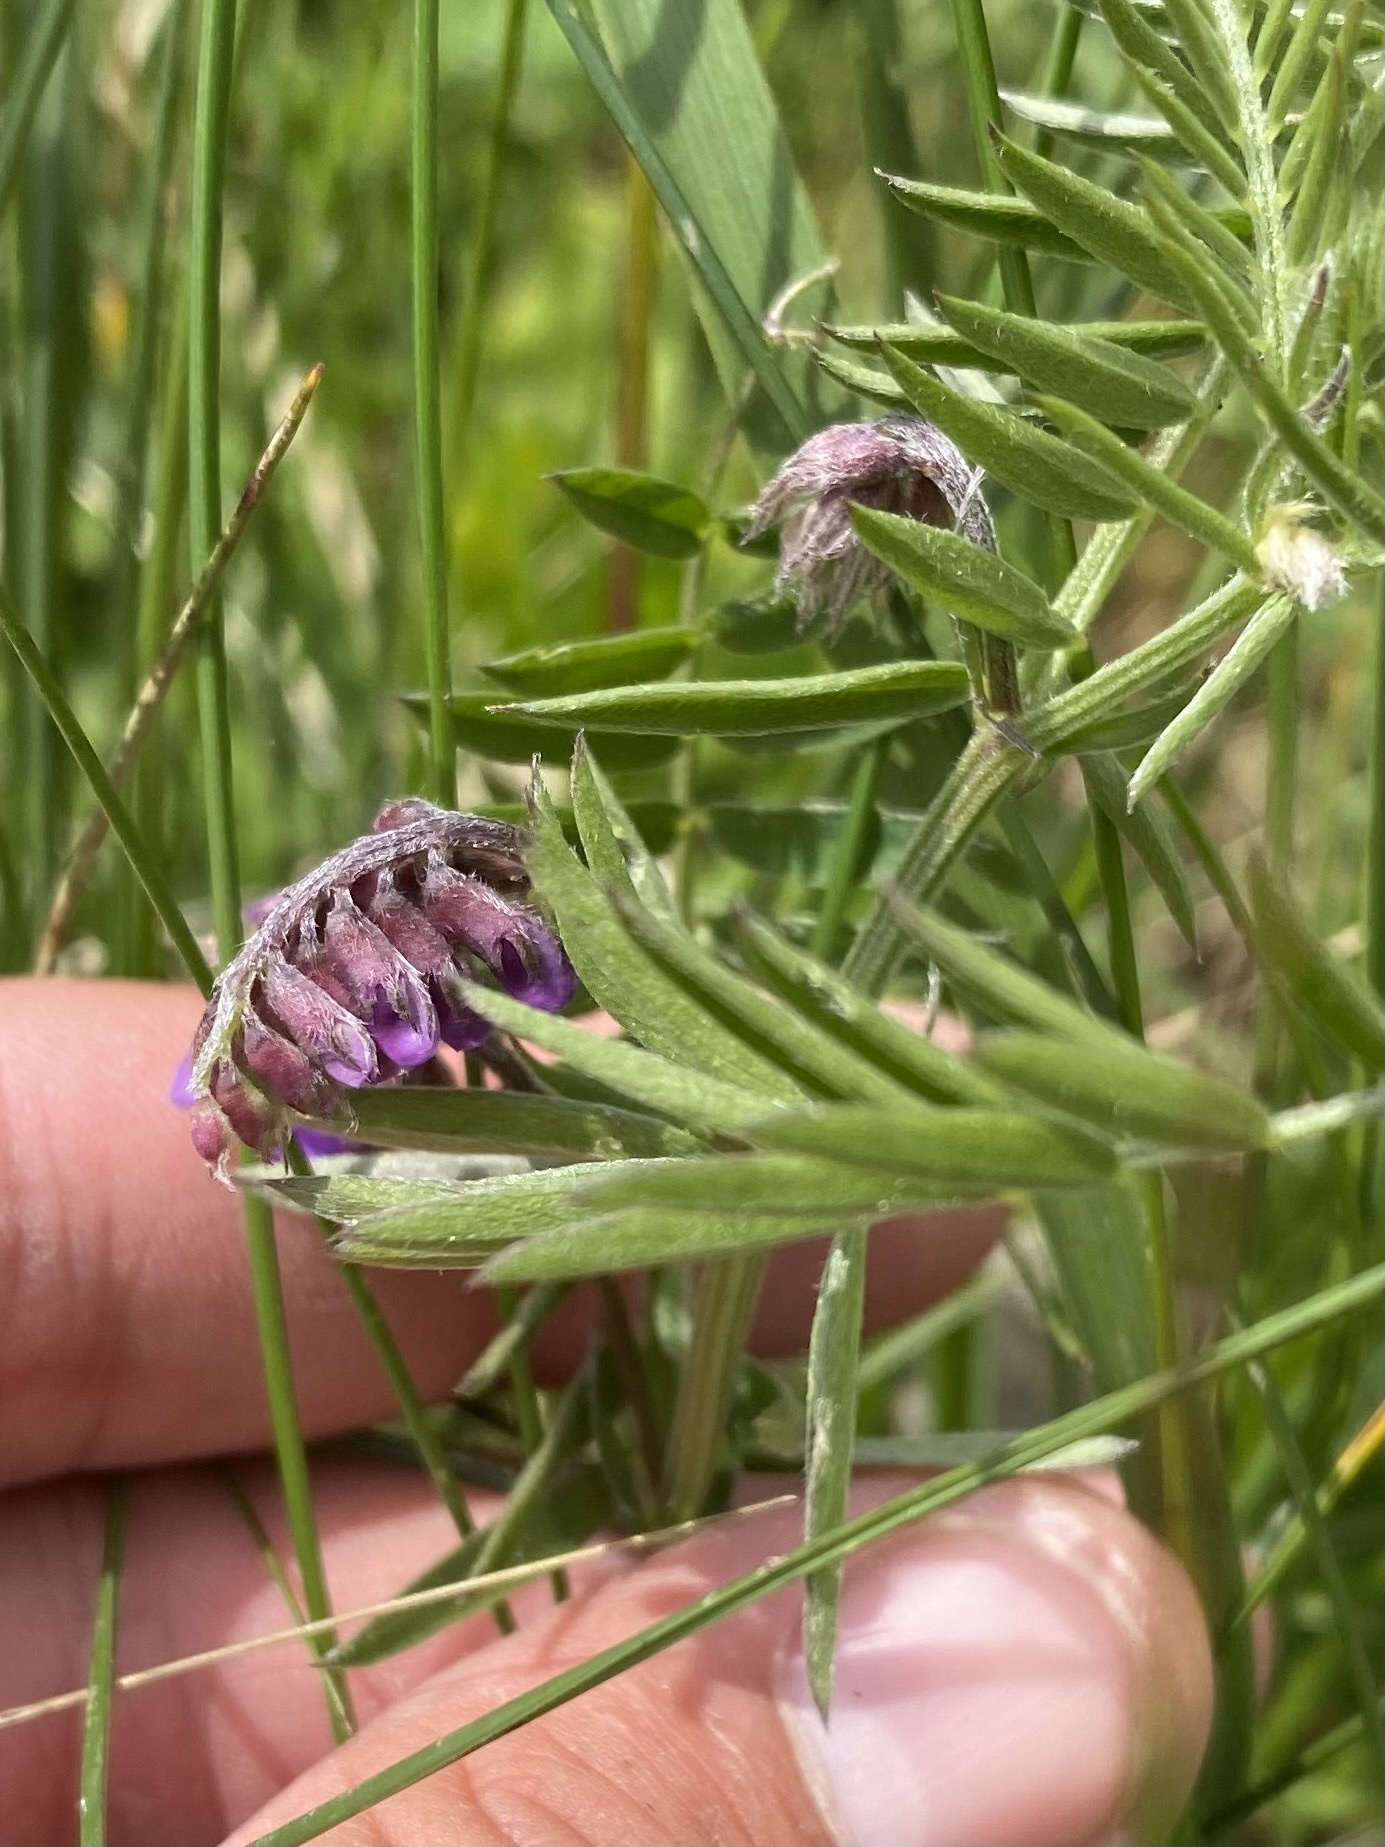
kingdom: Plantae
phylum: Tracheophyta
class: Magnoliopsida
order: Fabales
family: Fabaceae
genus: Vicia
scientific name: Vicia cracca
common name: Bird vetch
